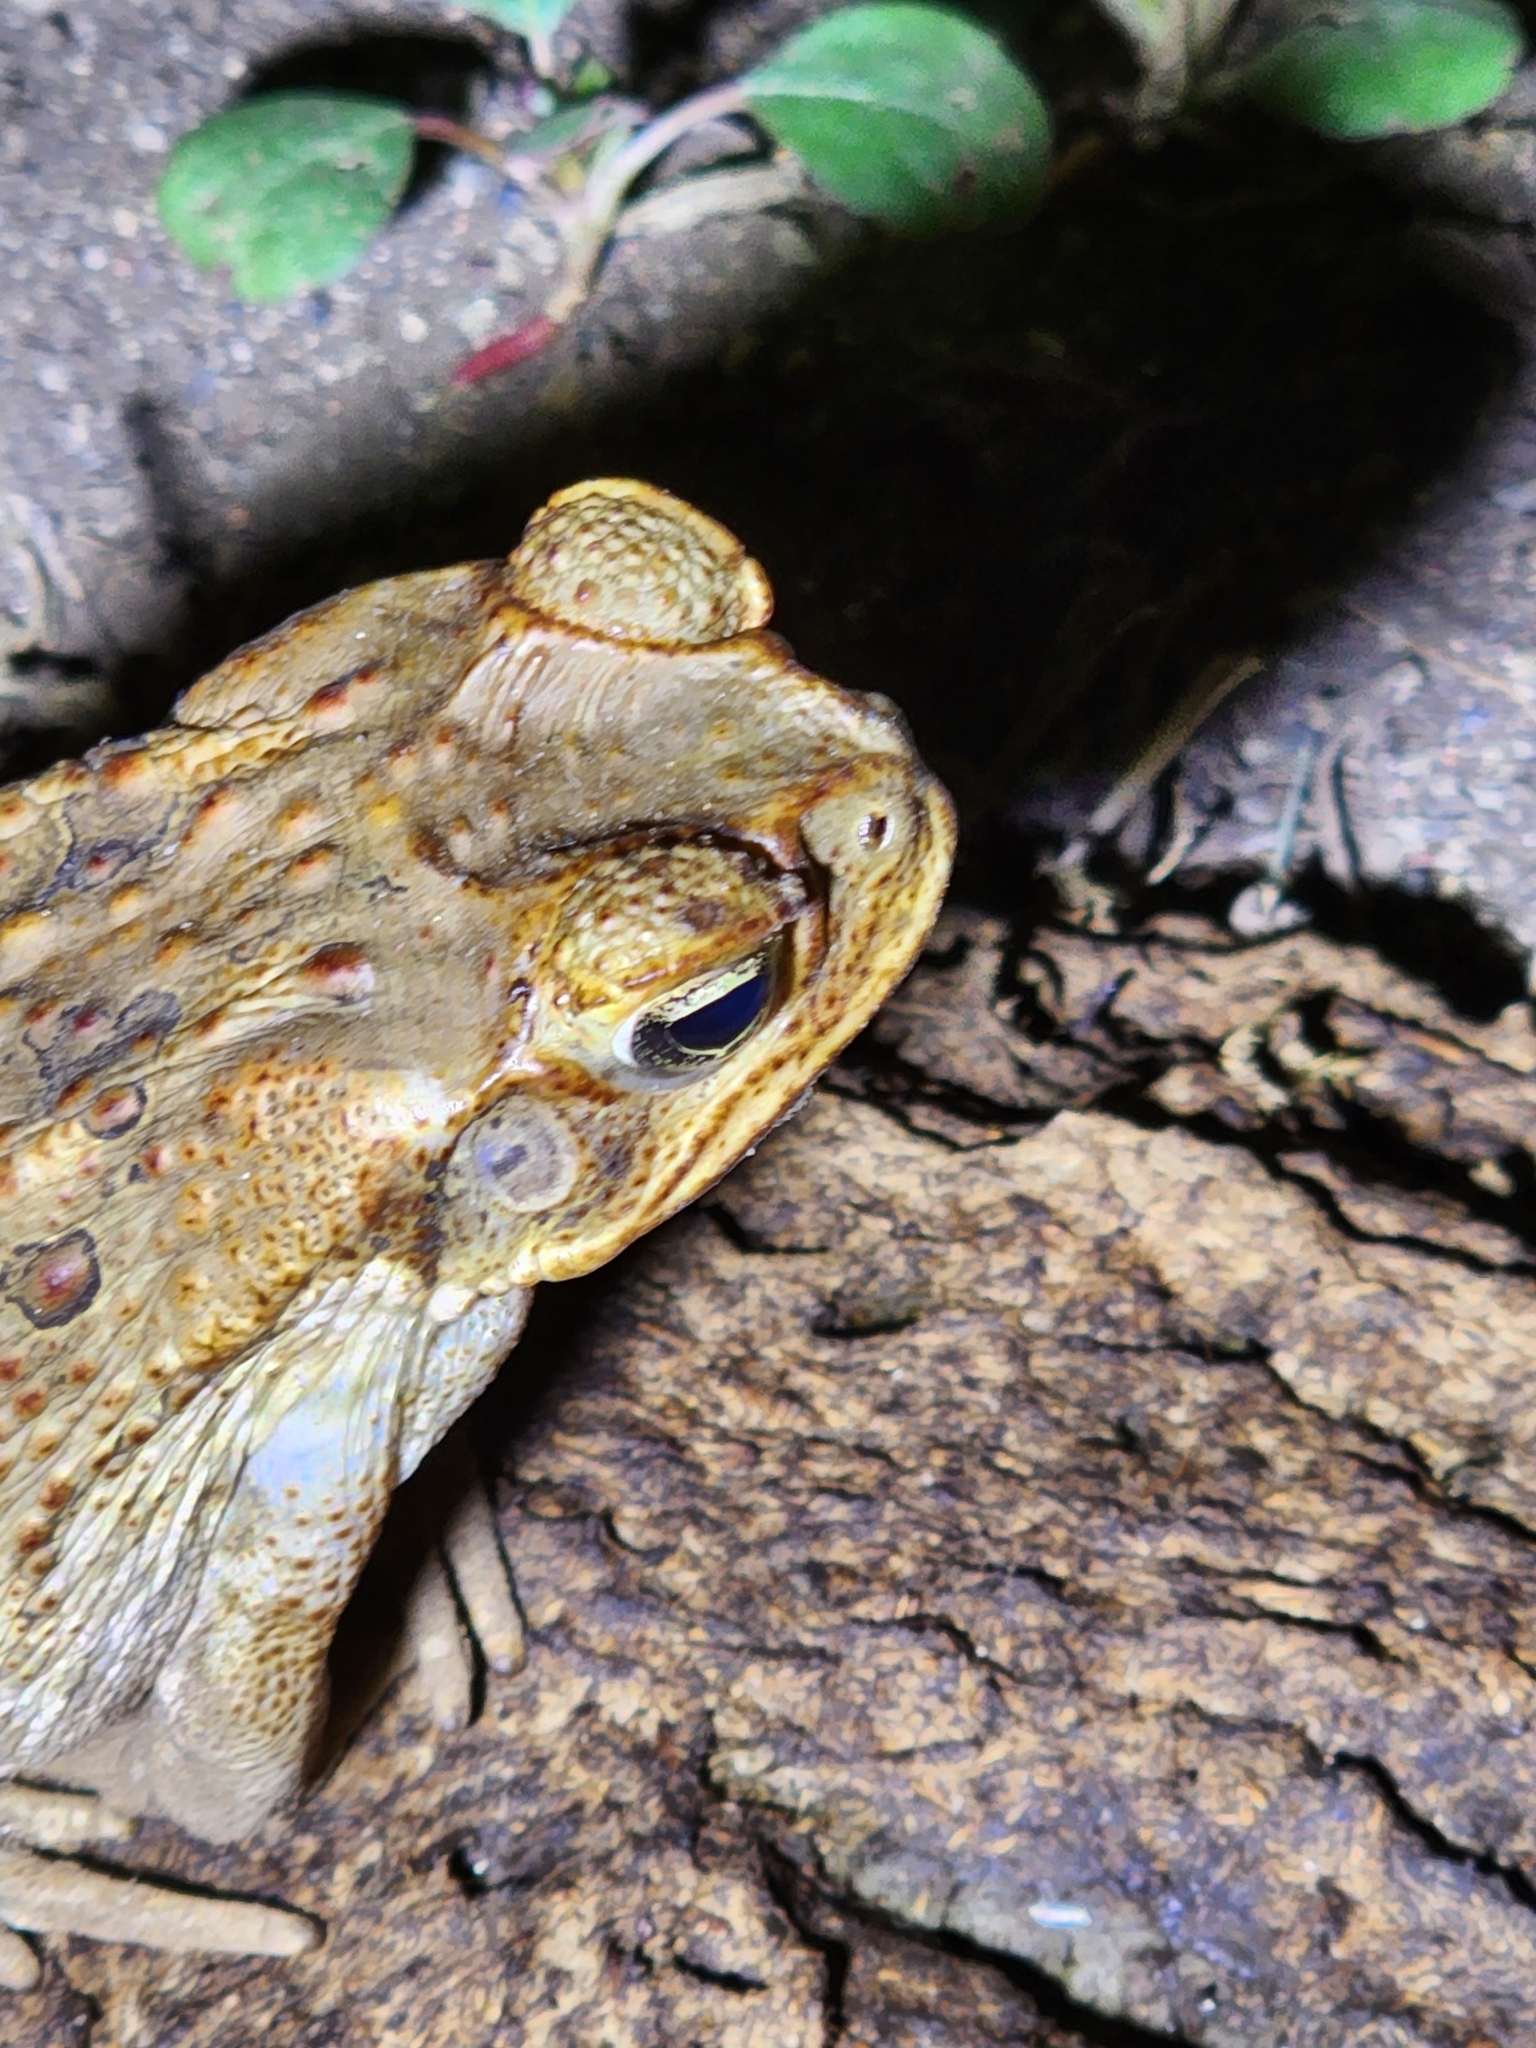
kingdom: Animalia
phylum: Chordata
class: Amphibia
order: Anura
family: Bufonidae
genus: Rhinella
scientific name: Rhinella marina
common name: Cane toad
